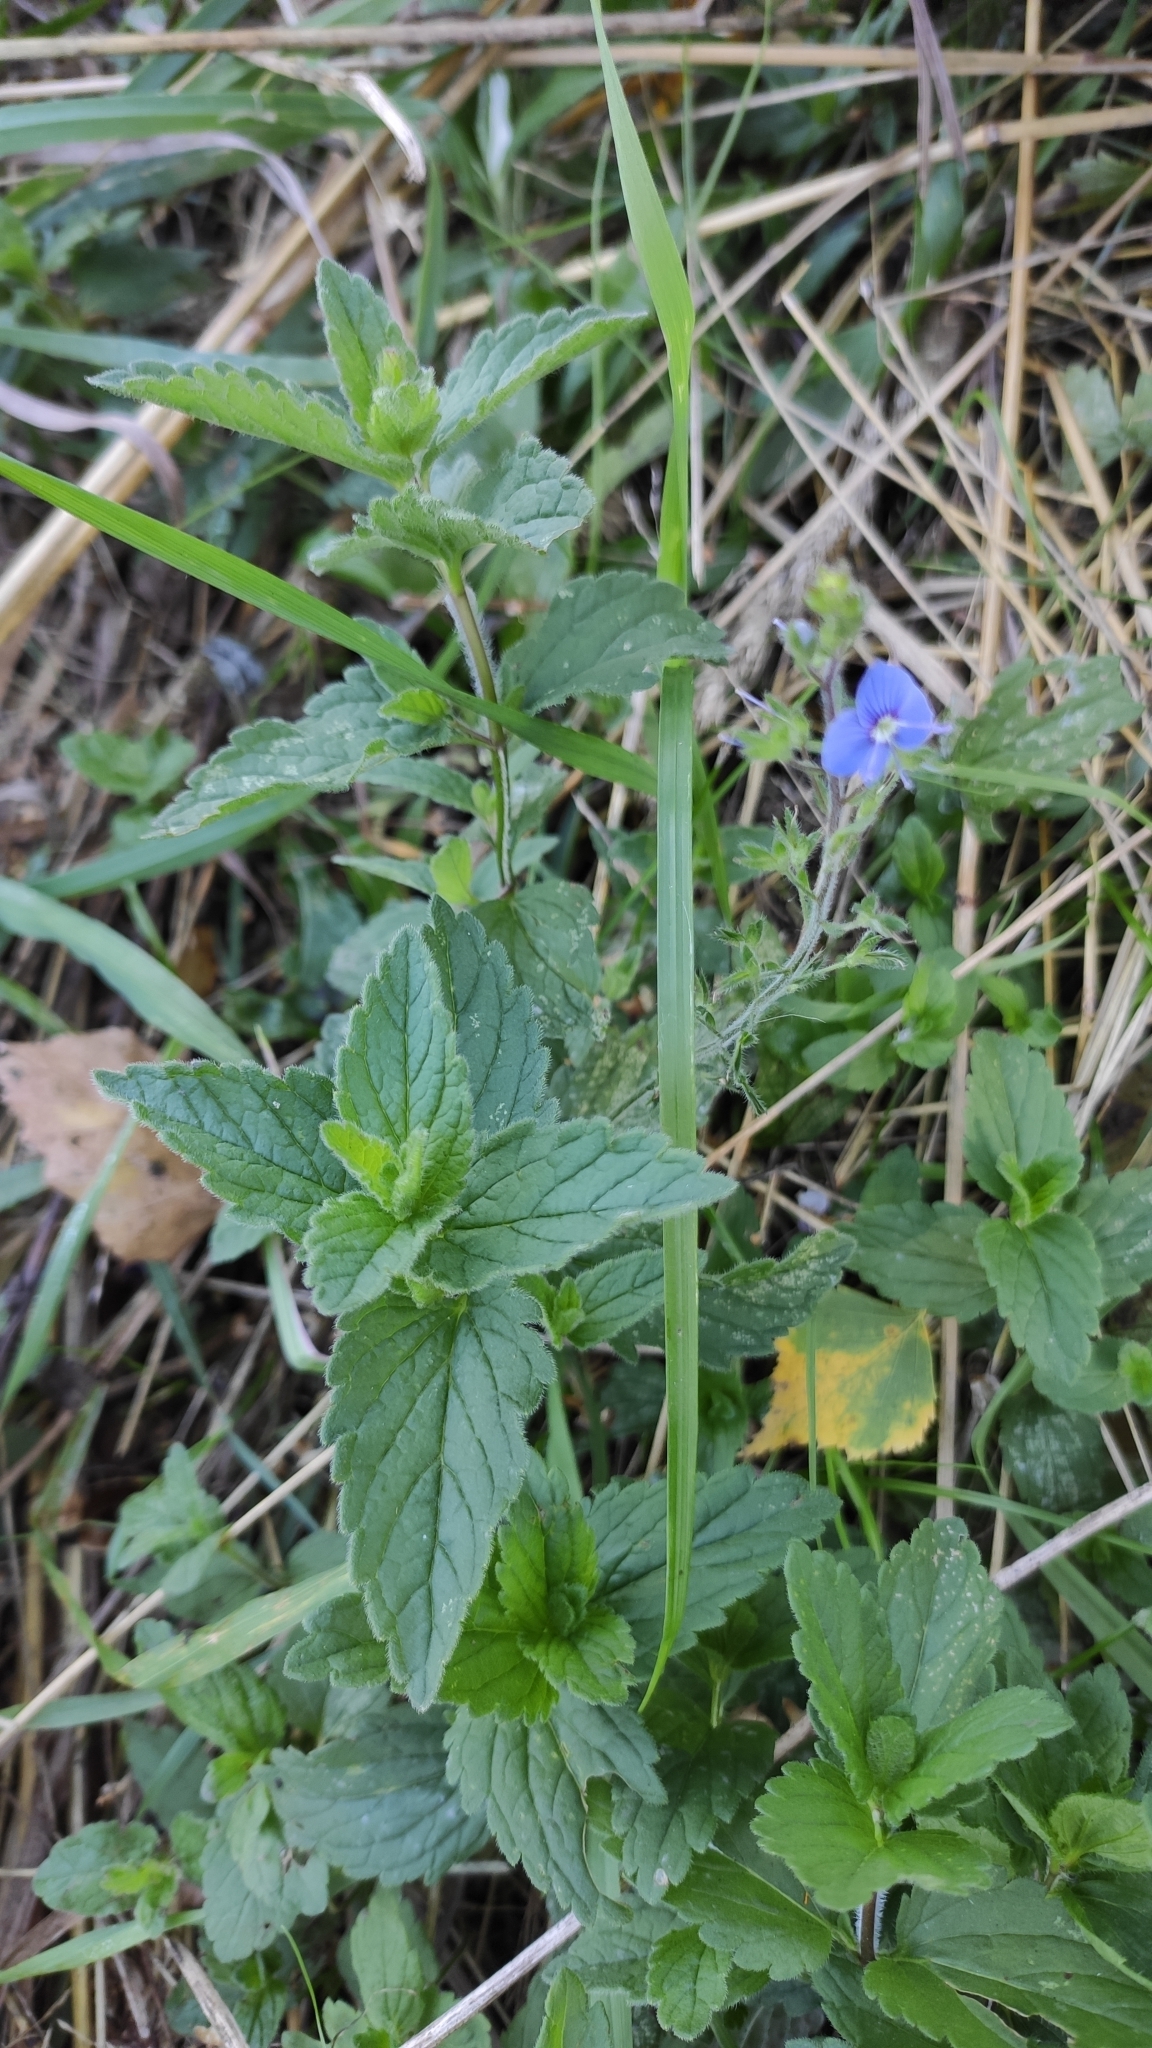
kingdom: Plantae
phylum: Tracheophyta
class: Magnoliopsida
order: Lamiales
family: Plantaginaceae
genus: Veronica
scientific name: Veronica chamaedrys
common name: Germander speedwell
